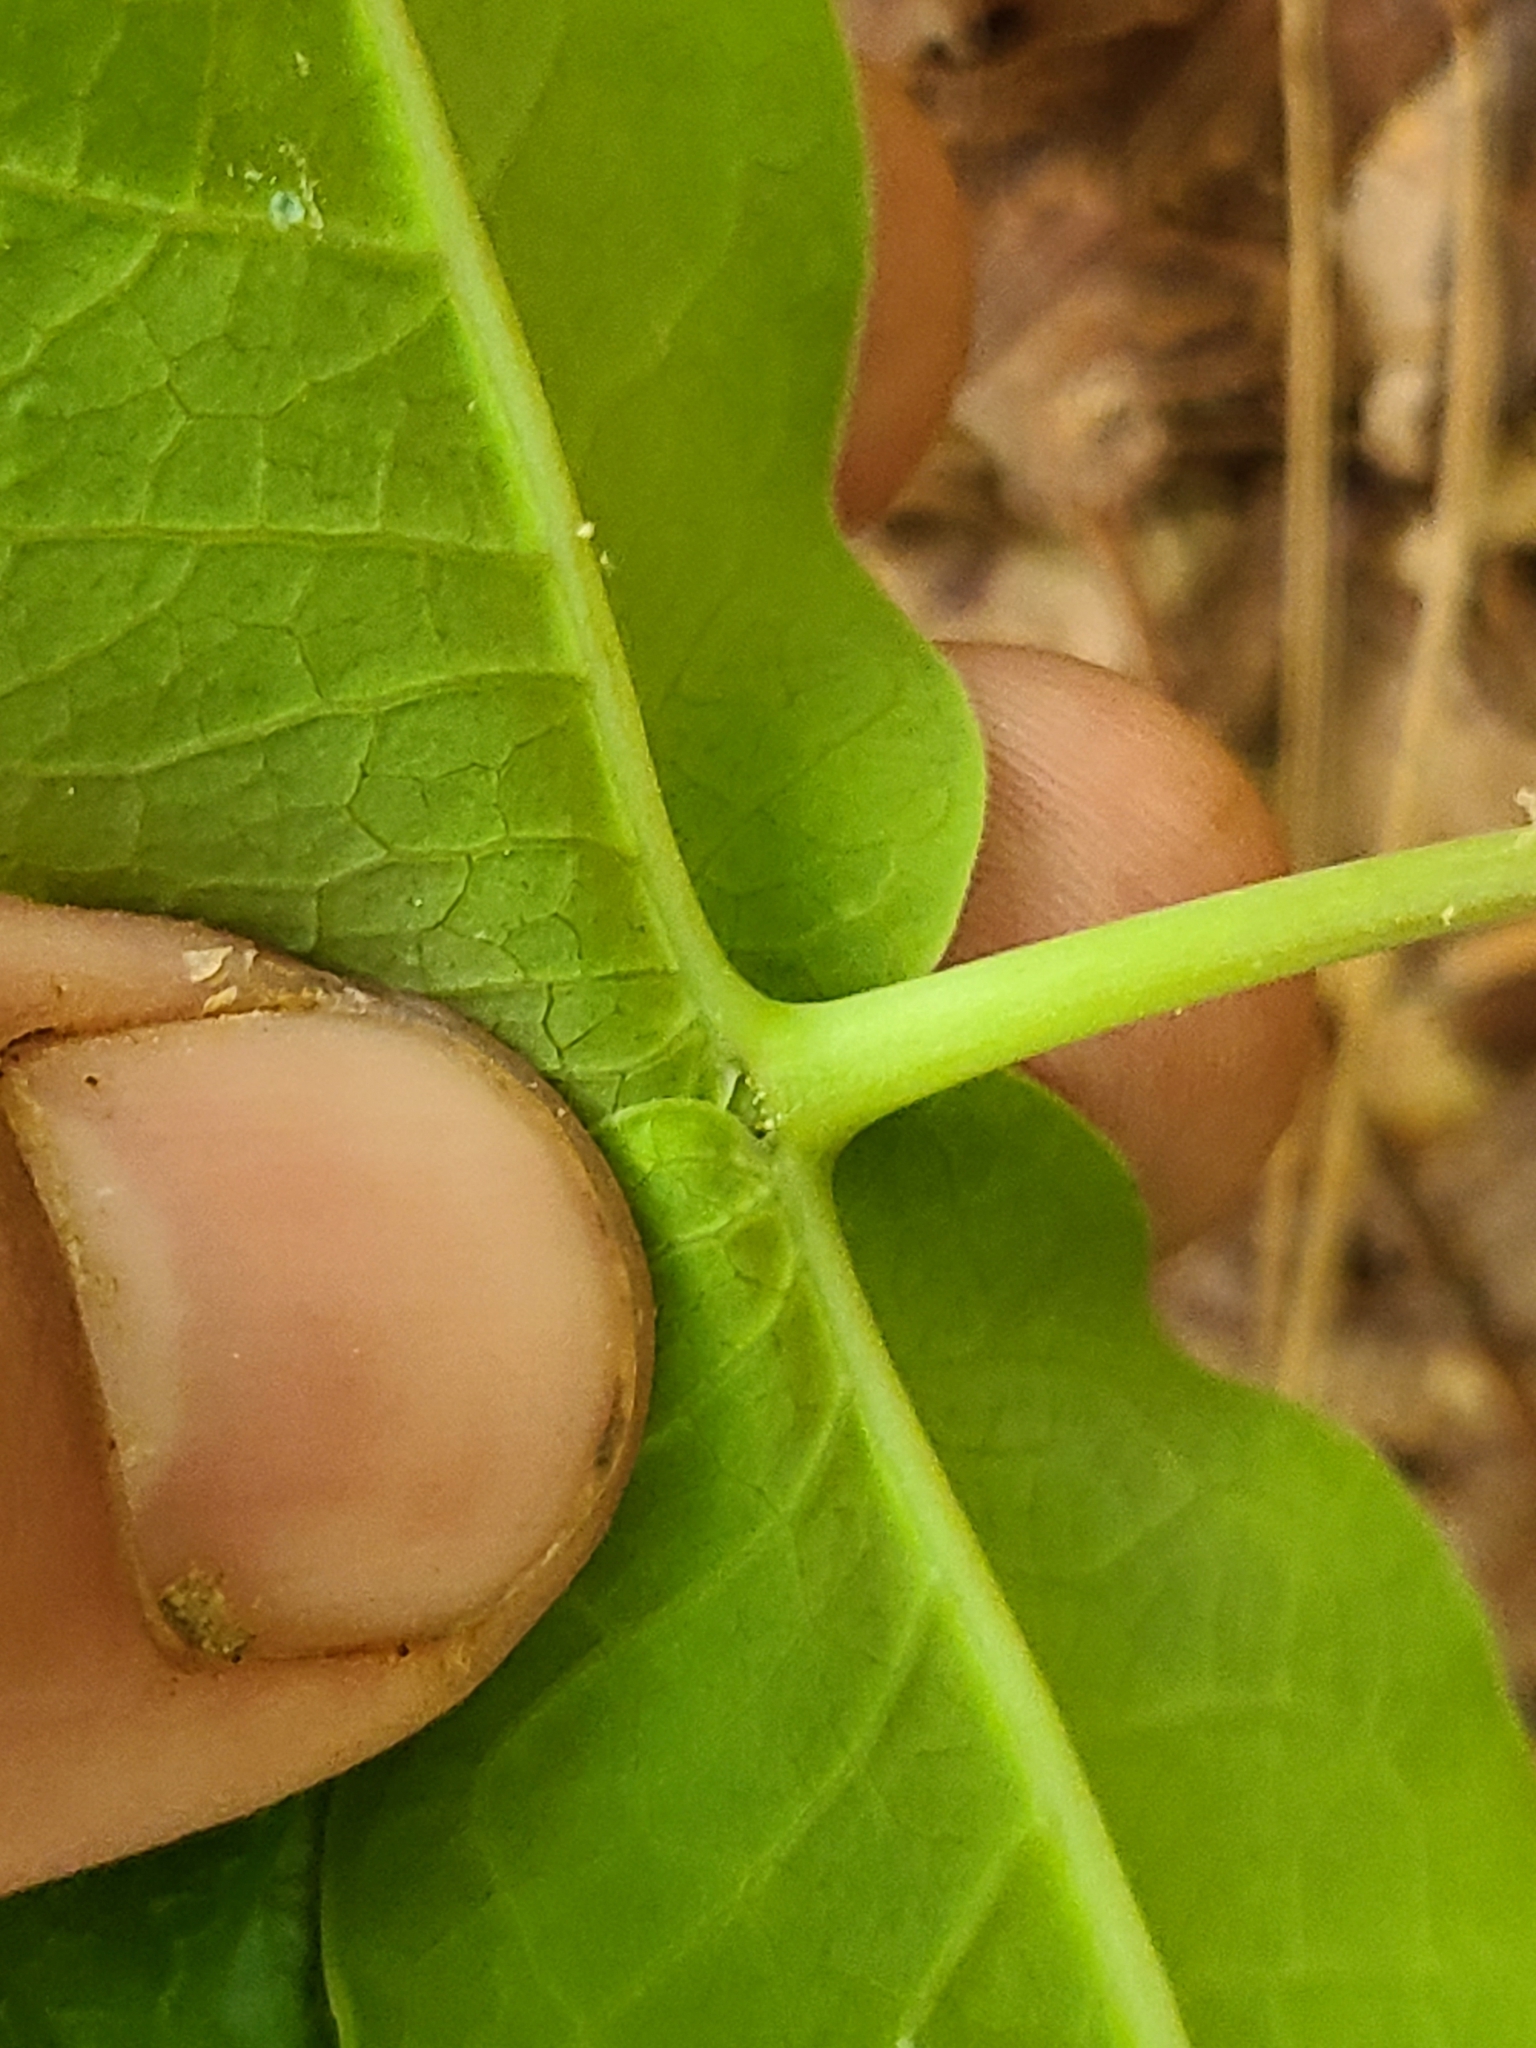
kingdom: Plantae
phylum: Tracheophyta
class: Magnoliopsida
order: Gentianales
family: Apocynaceae
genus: Asclepias
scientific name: Asclepias variegata
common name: Variegated milkweed
